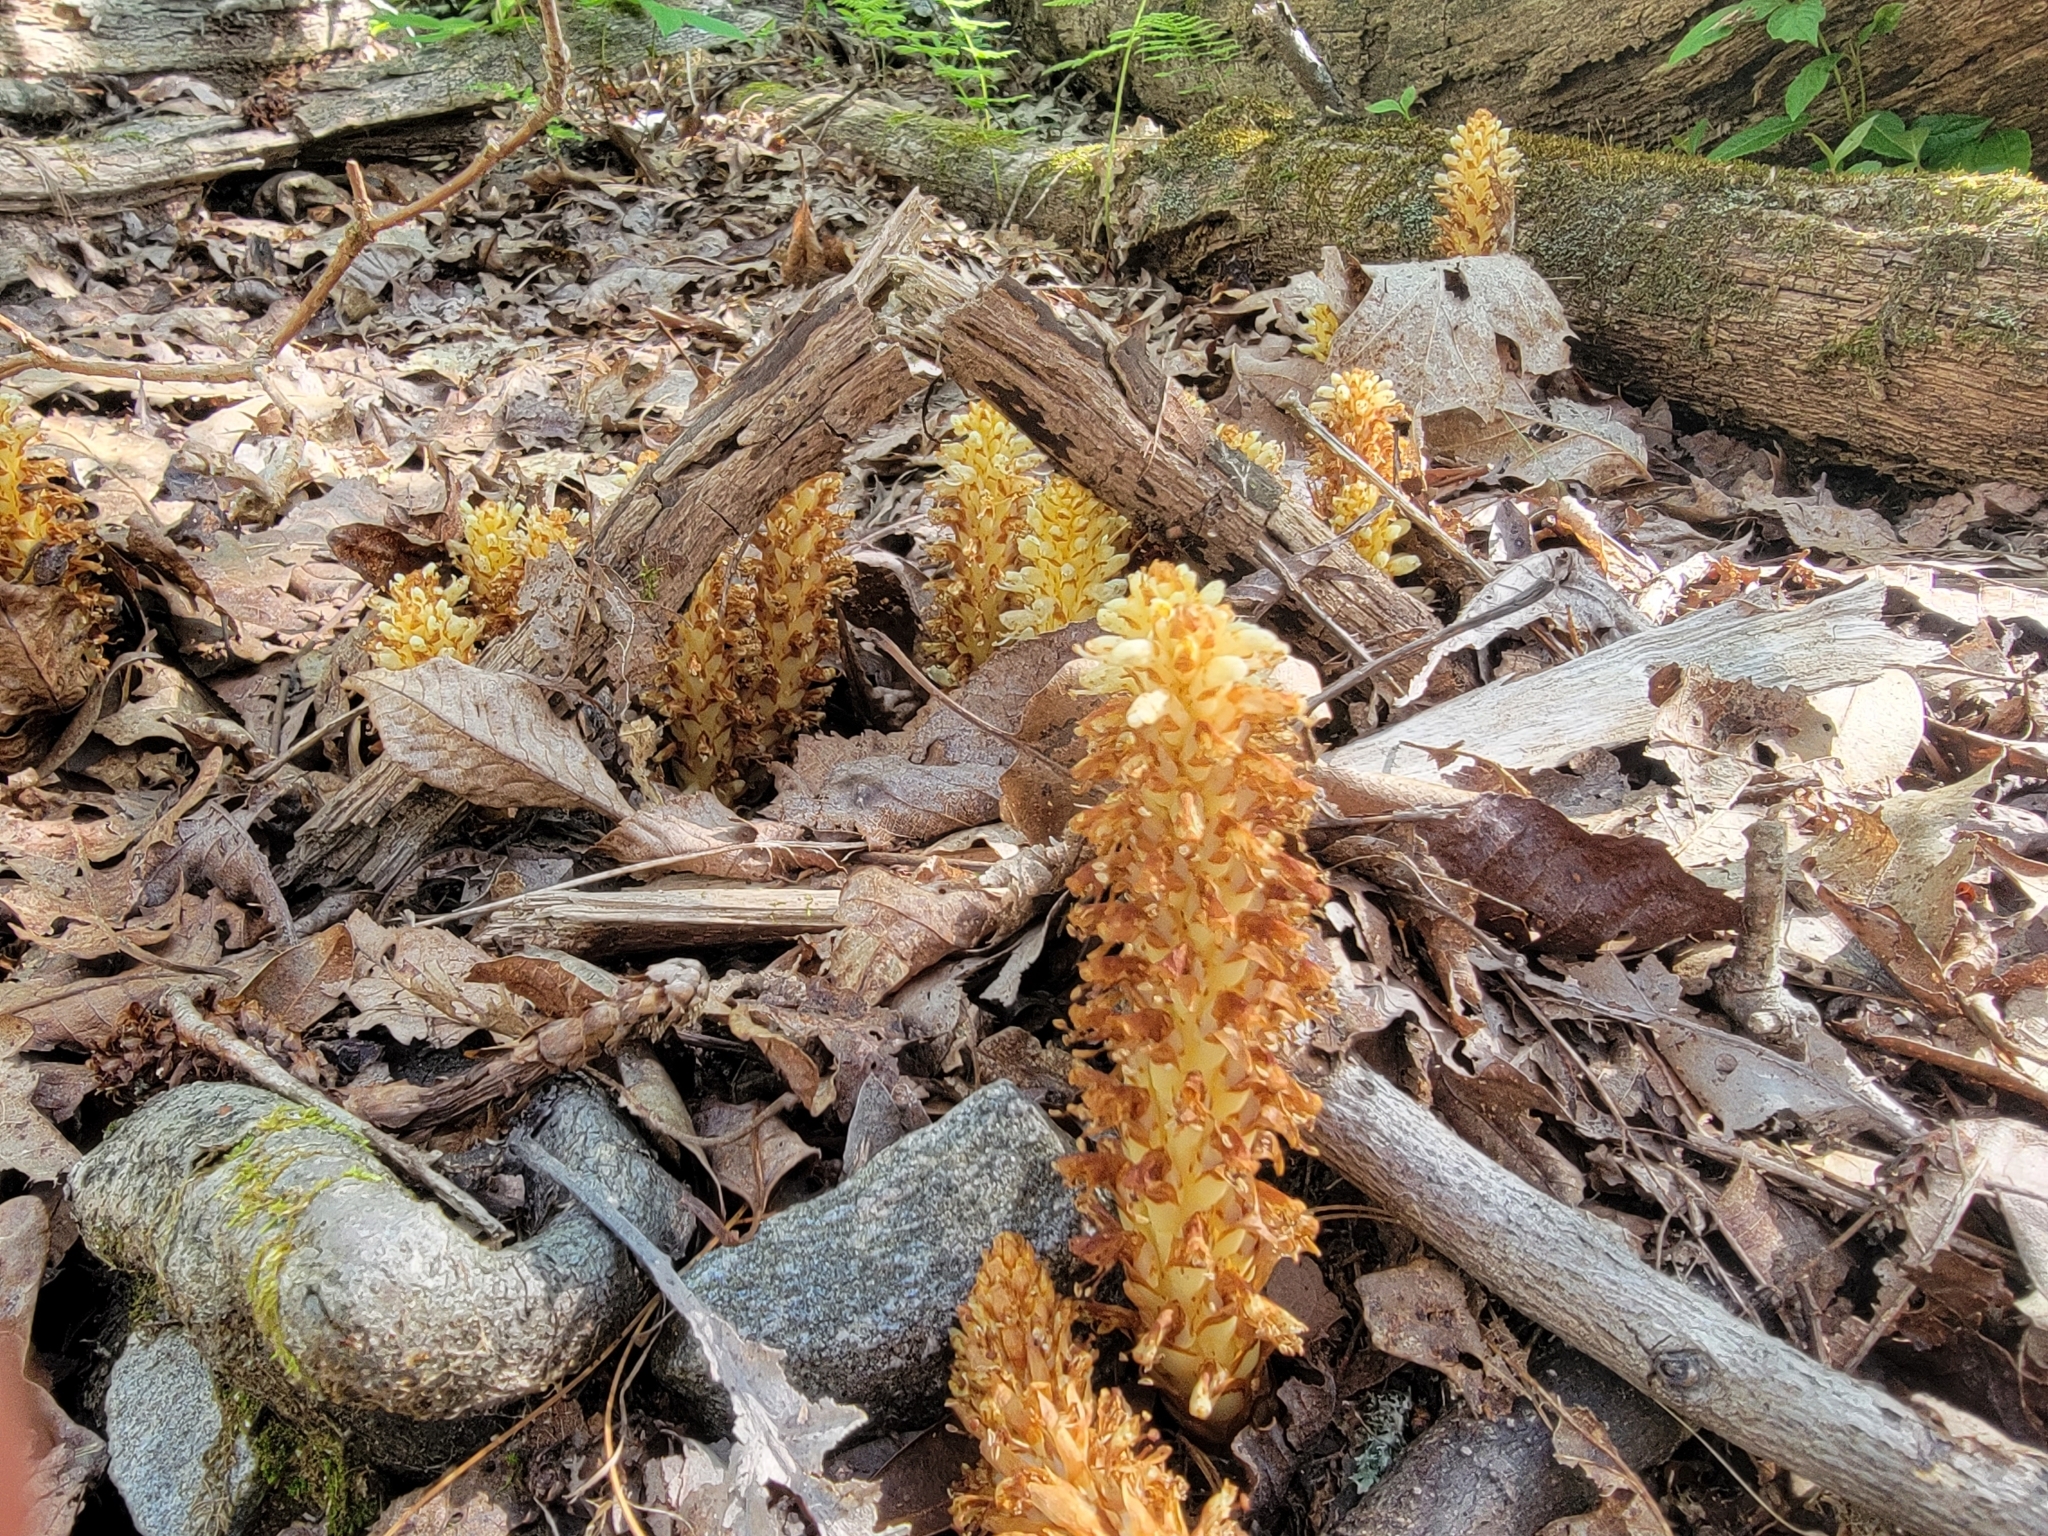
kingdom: Plantae
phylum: Tracheophyta
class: Magnoliopsida
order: Lamiales
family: Orobanchaceae
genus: Conopholis
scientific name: Conopholis americana
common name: American cancer-root
